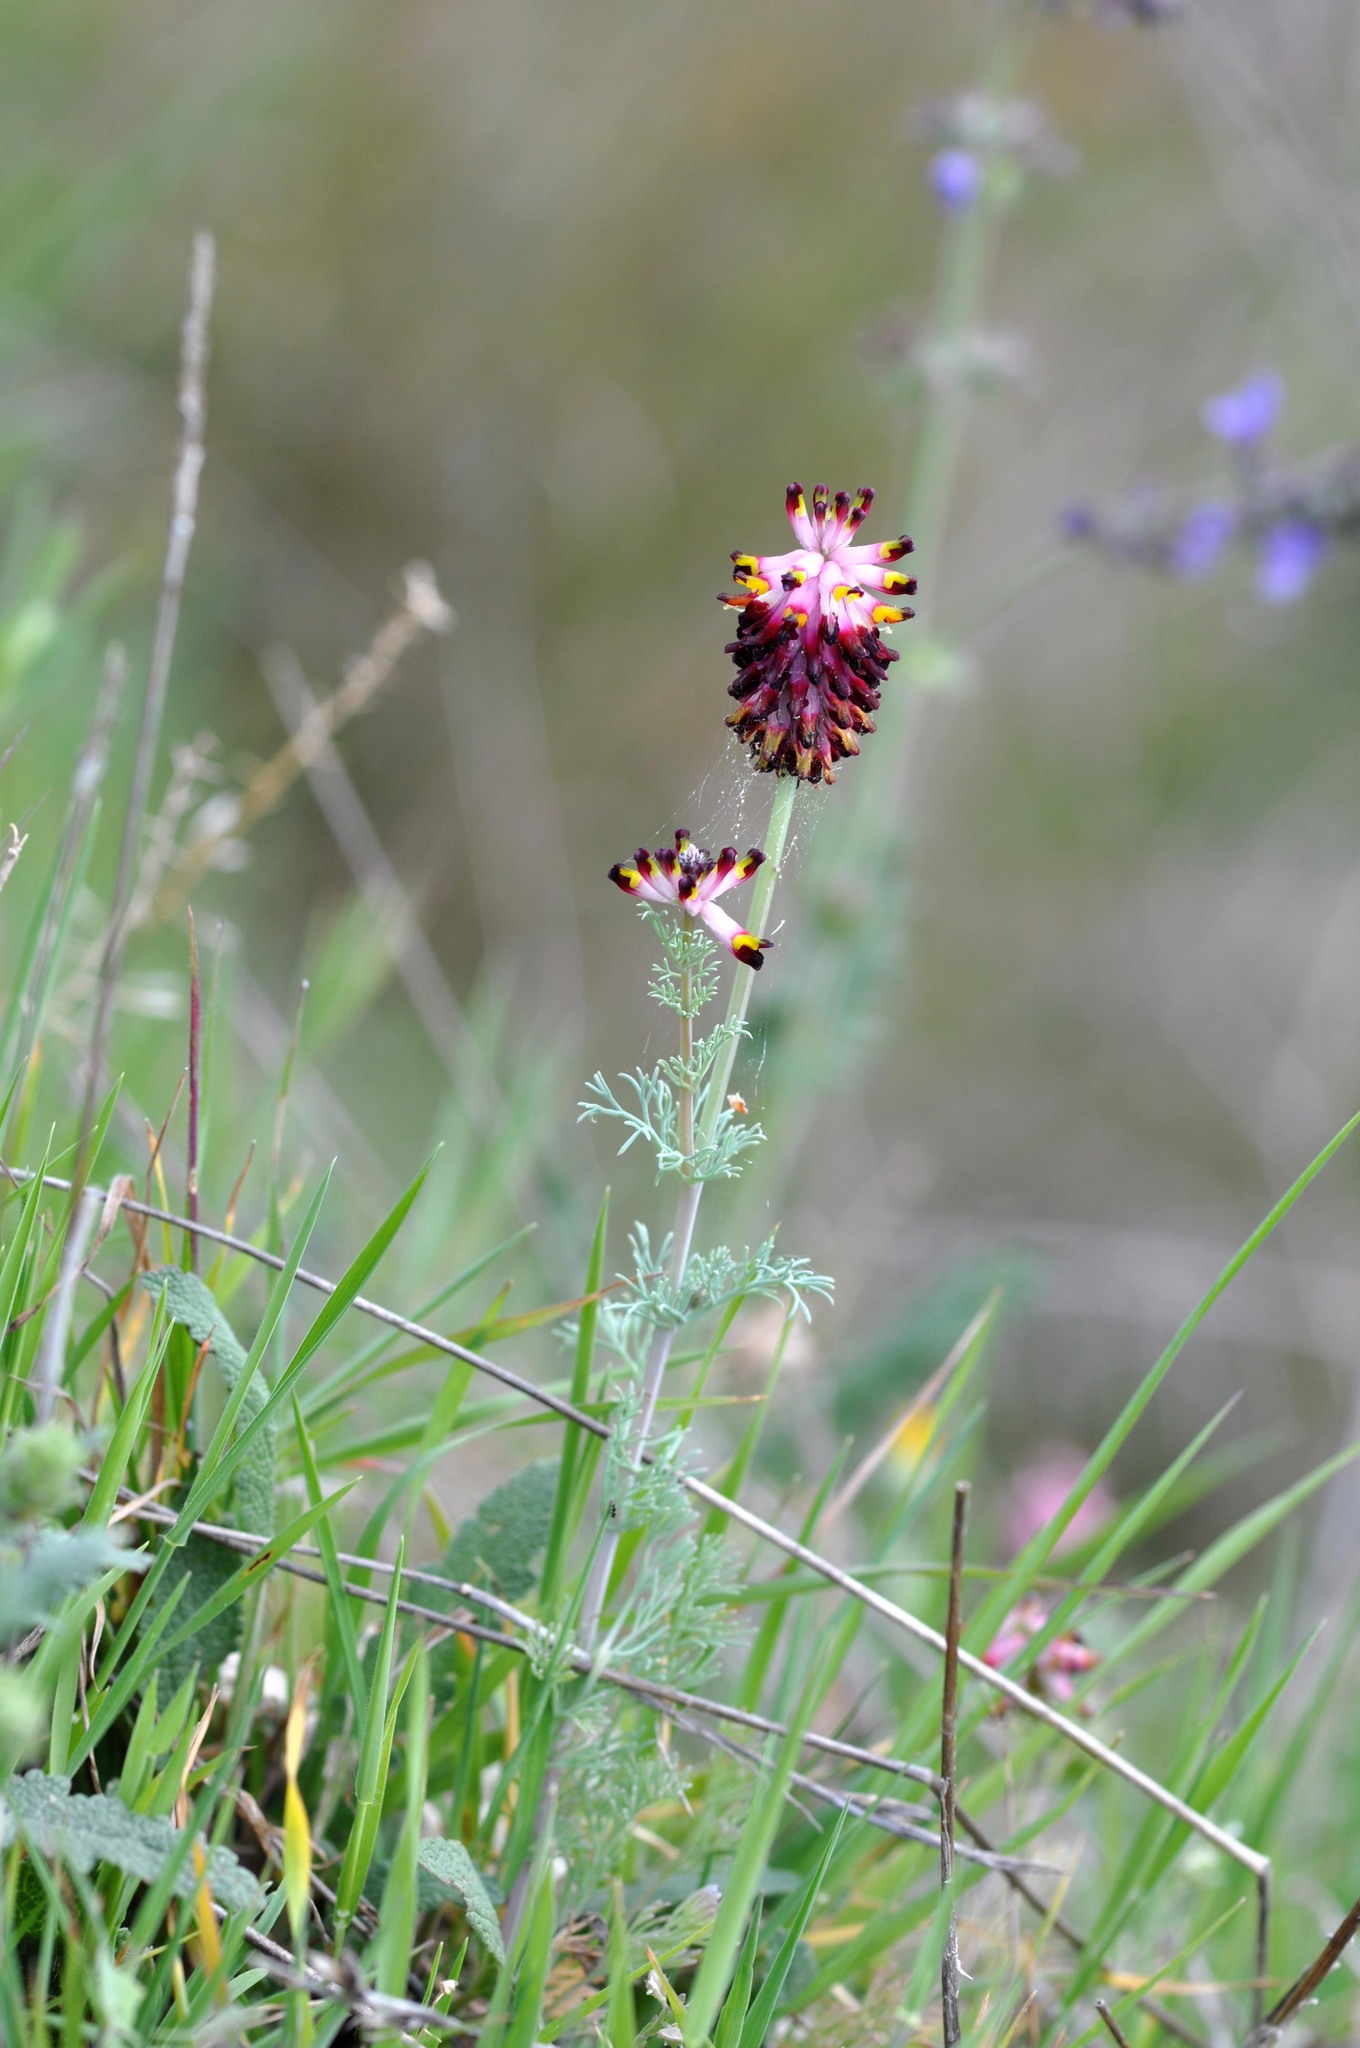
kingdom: Plantae
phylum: Tracheophyta
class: Magnoliopsida
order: Ranunculales
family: Papaveraceae
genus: Platycapnos
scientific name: Platycapnos spicata
